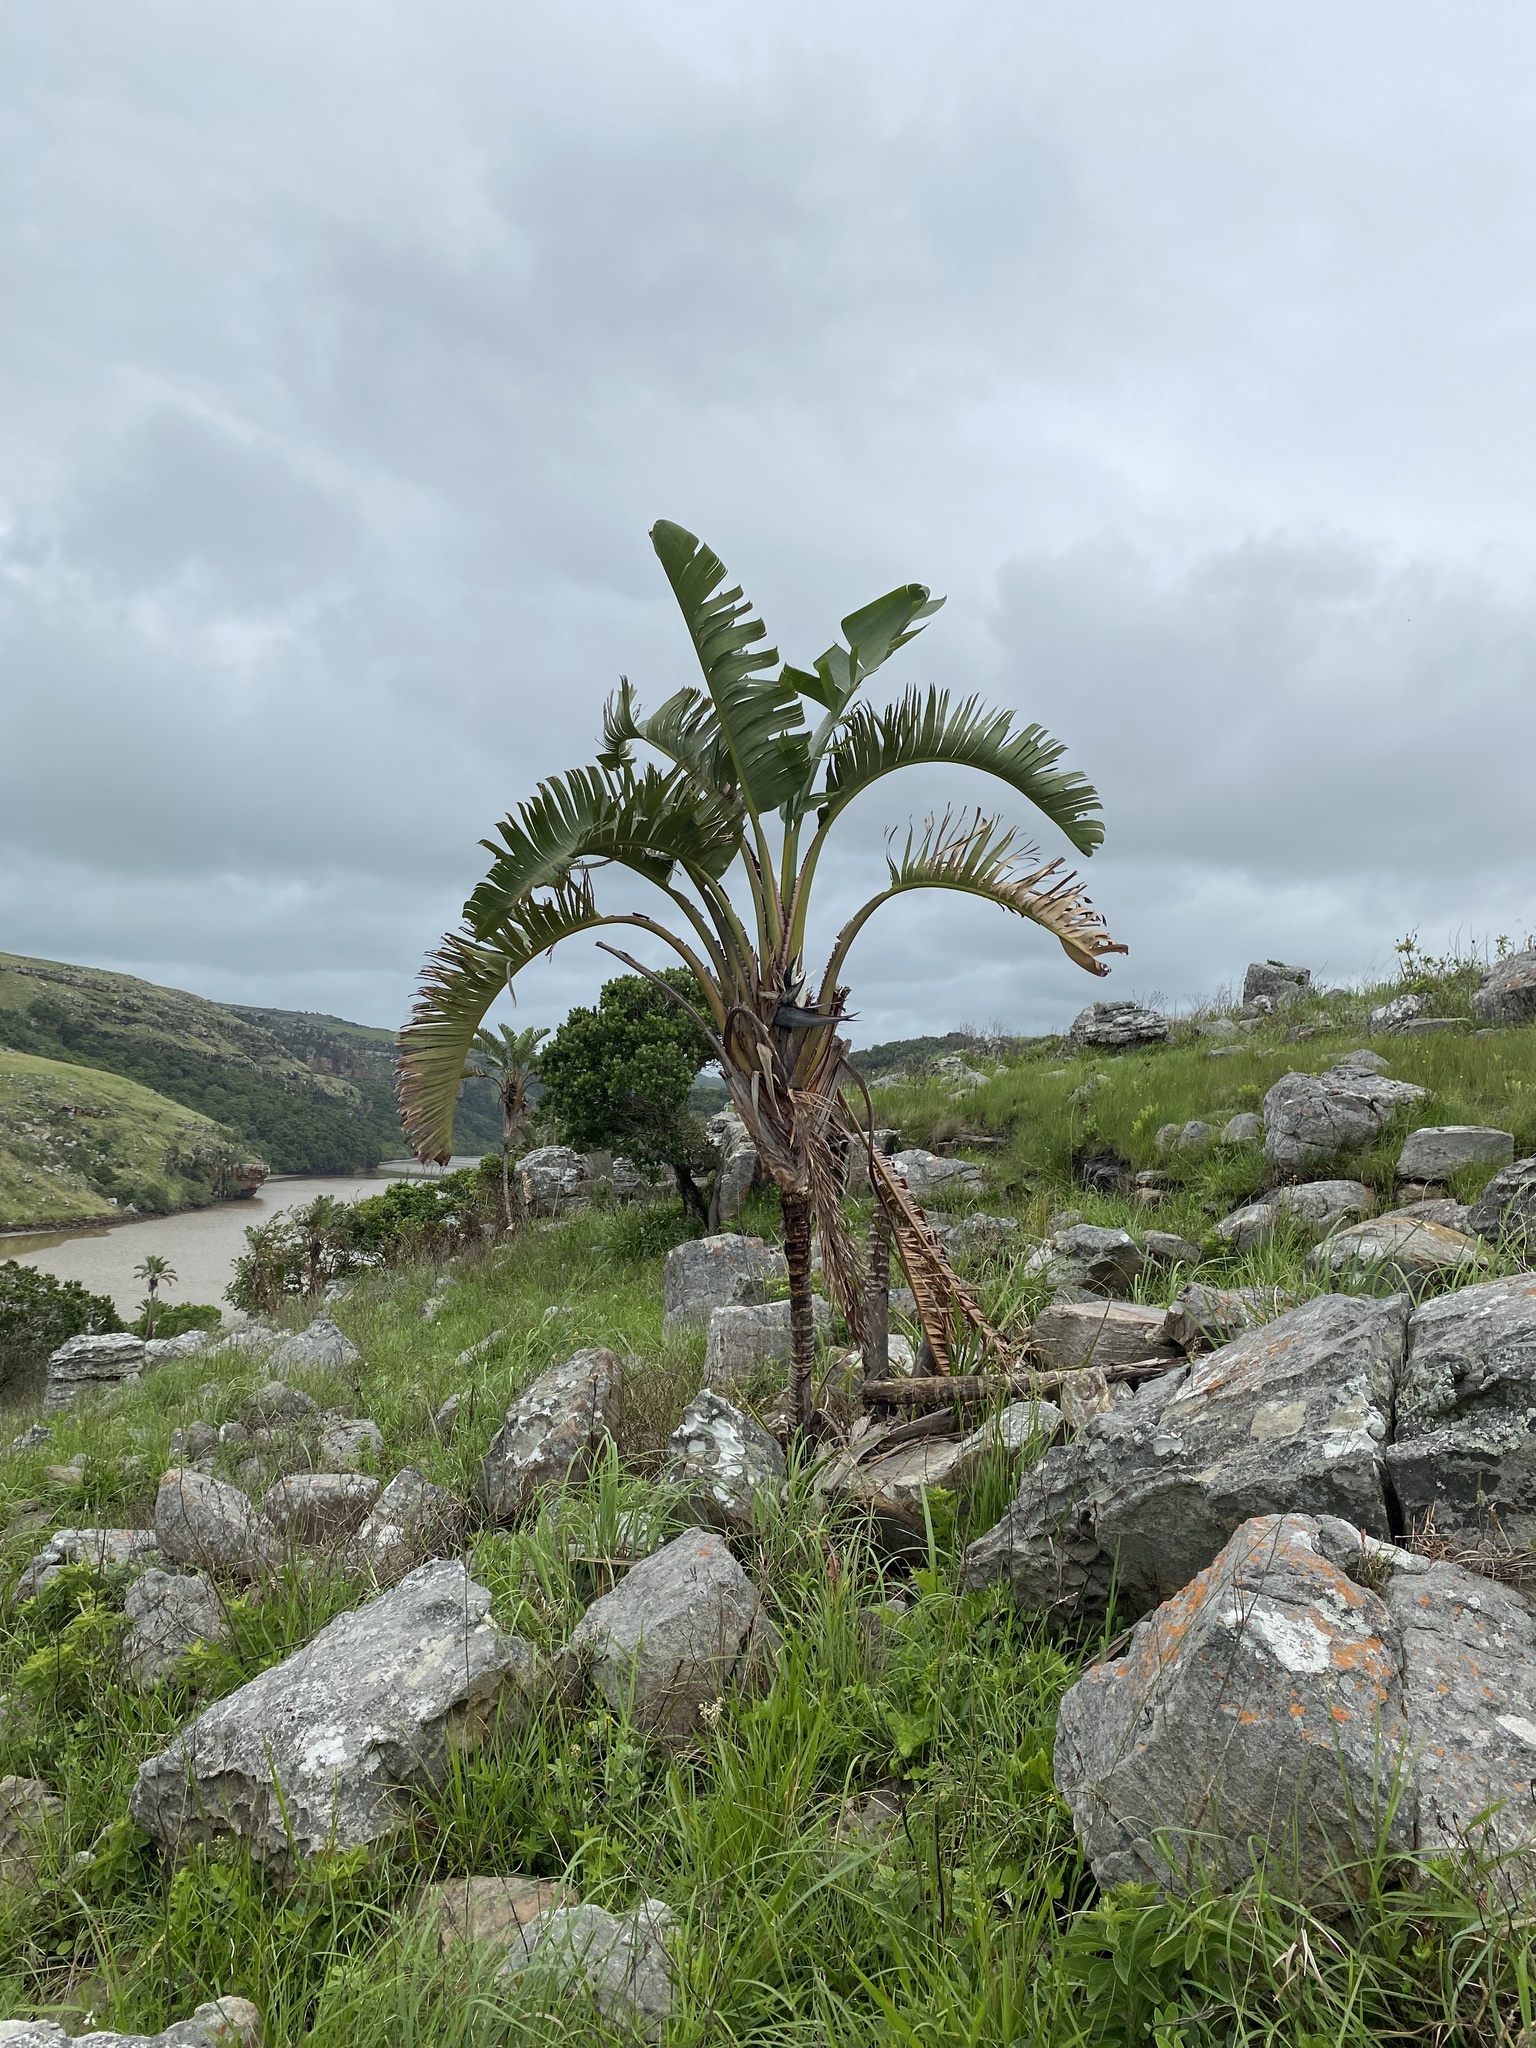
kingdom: Plantae
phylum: Tracheophyta
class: Liliopsida
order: Zingiberales
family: Strelitziaceae
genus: Strelitzia
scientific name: Strelitzia nicolai
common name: Bird-of-paradise tree
